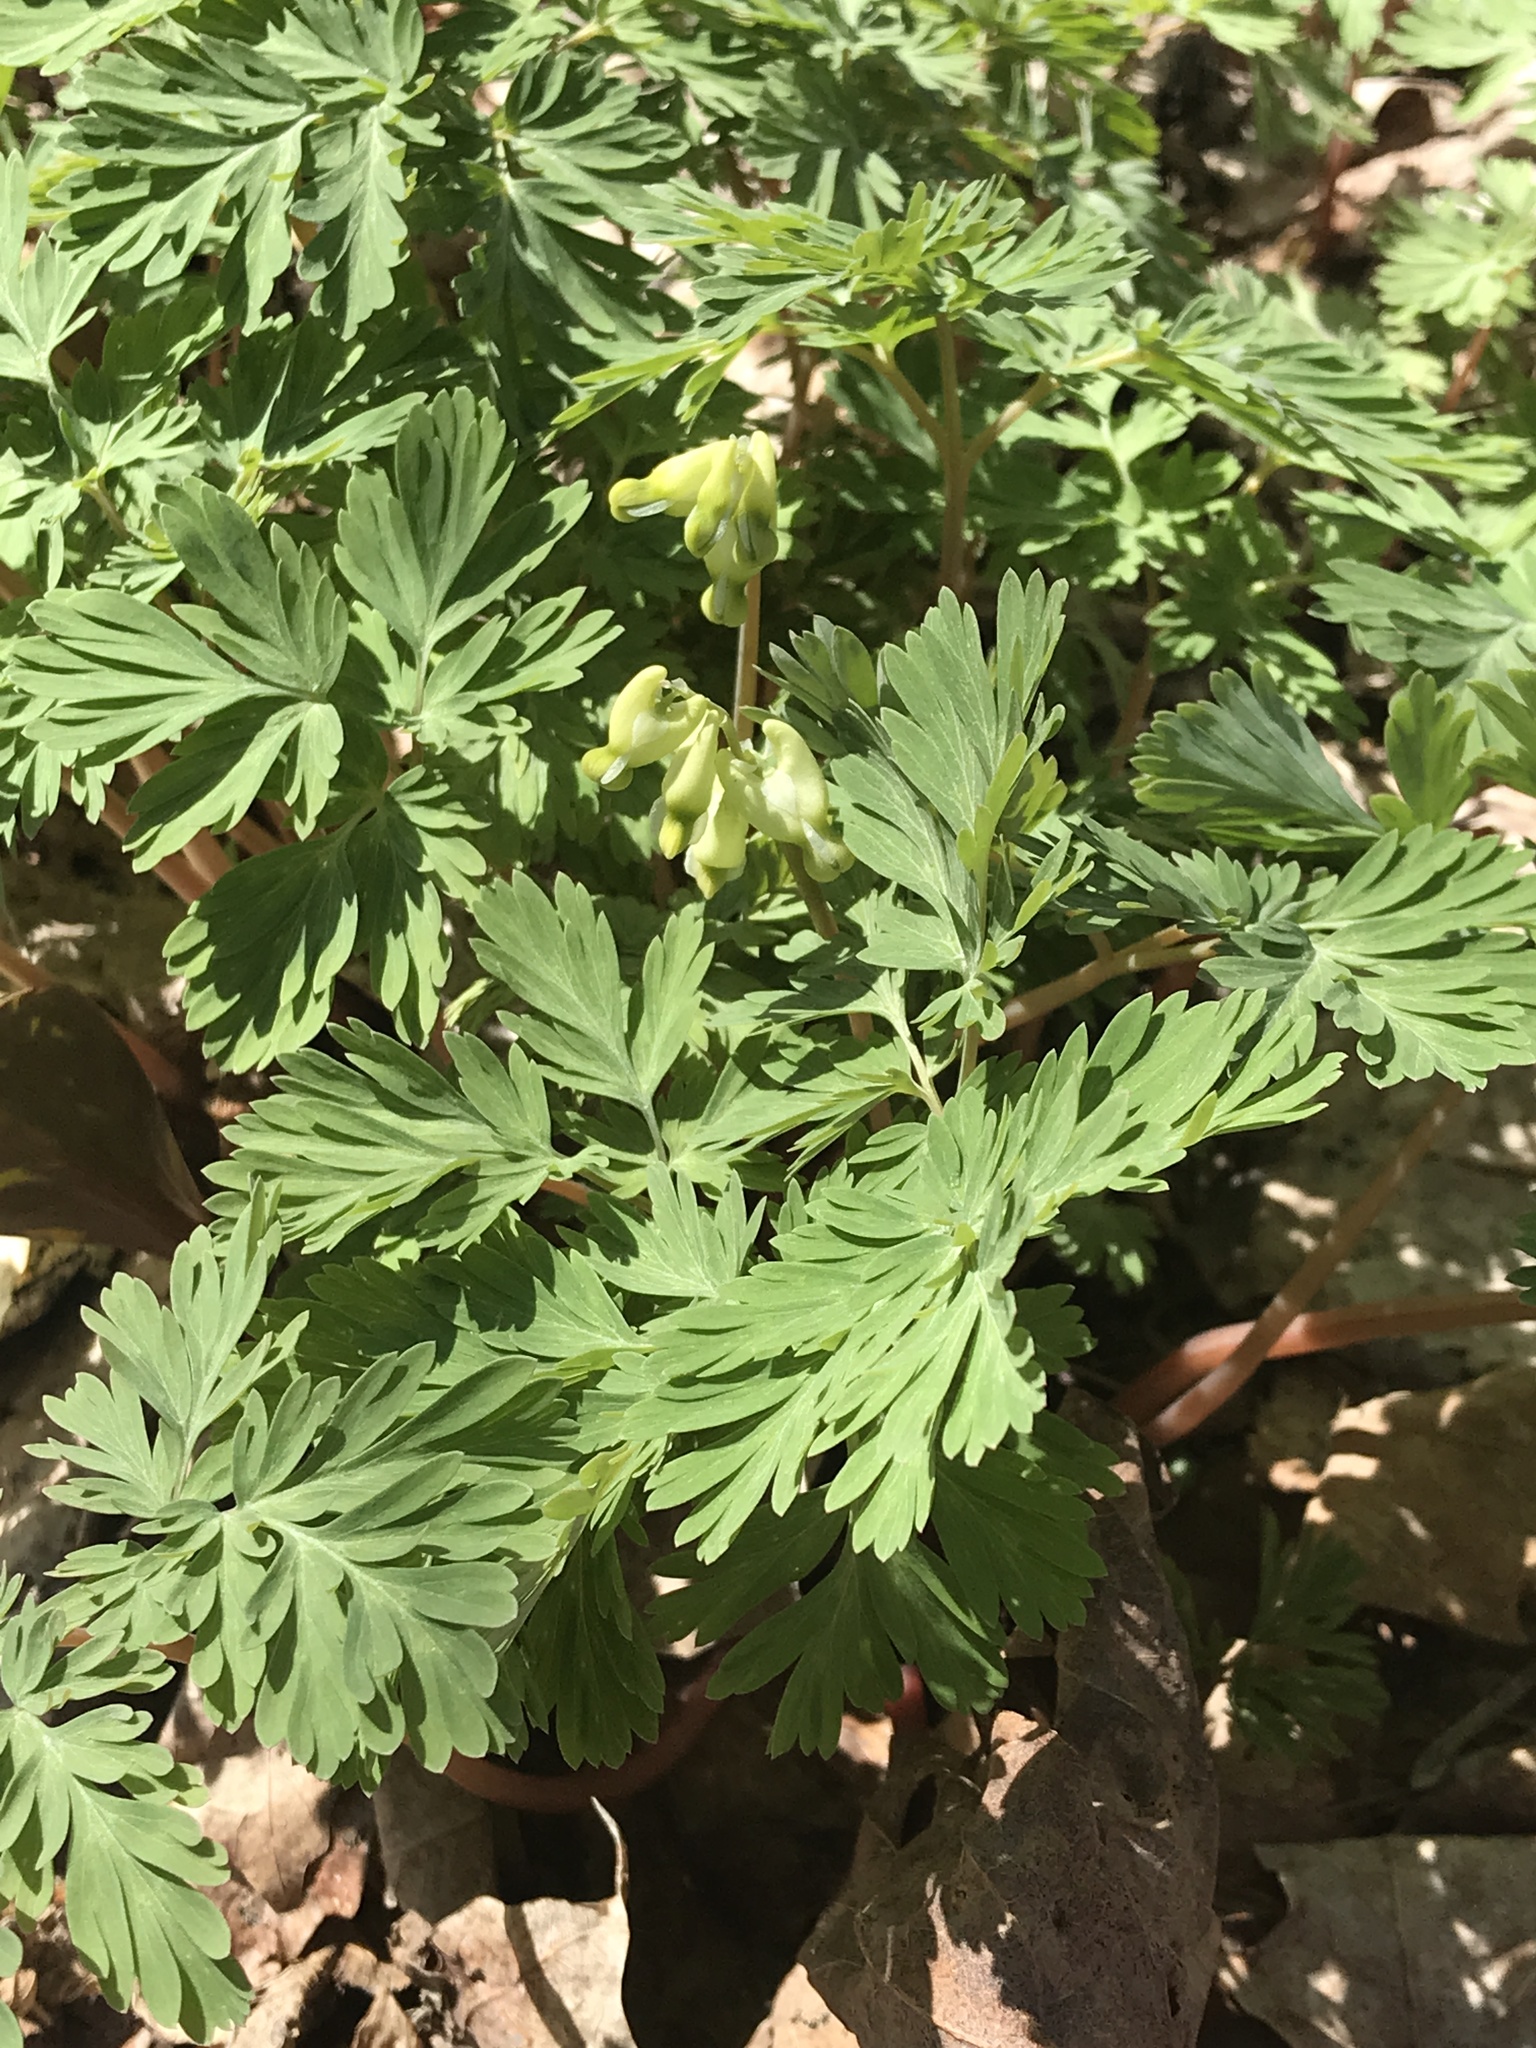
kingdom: Plantae
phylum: Tracheophyta
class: Magnoliopsida
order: Ranunculales
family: Papaveraceae
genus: Dicentra
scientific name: Dicentra cucullaria
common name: Dutchman's breeches
